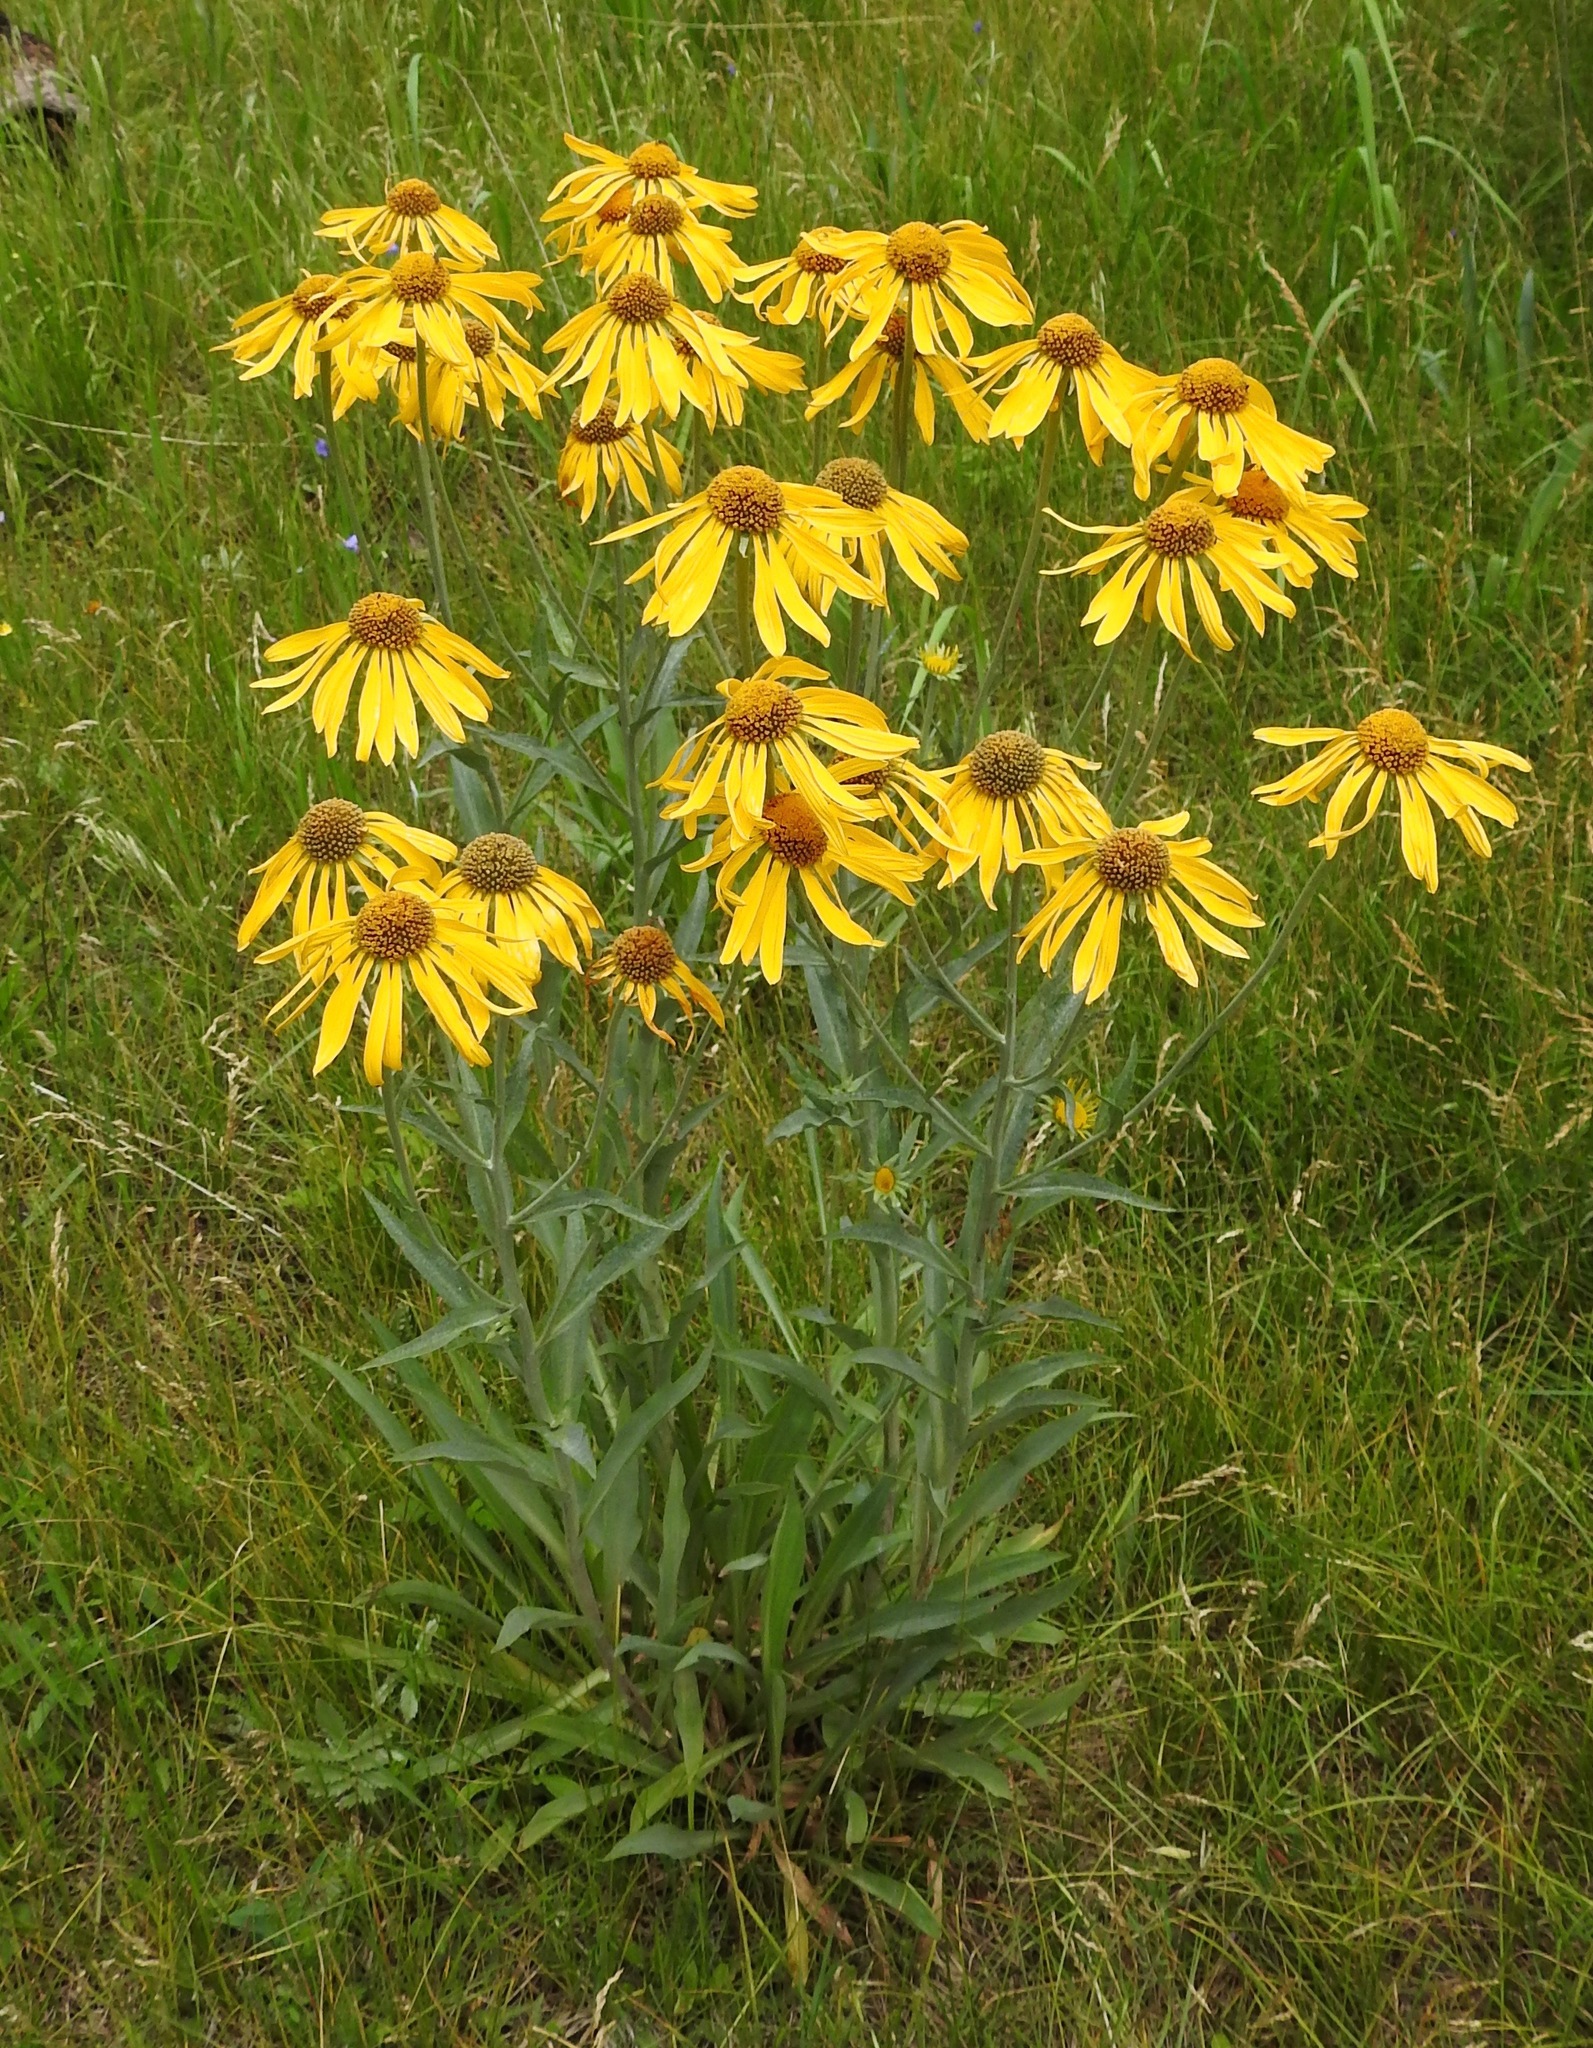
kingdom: Plantae
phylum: Tracheophyta
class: Magnoliopsida
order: Asterales
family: Asteraceae
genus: Hymenoxys
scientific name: Hymenoxys hoopesii
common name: Orange-sneezeweed
